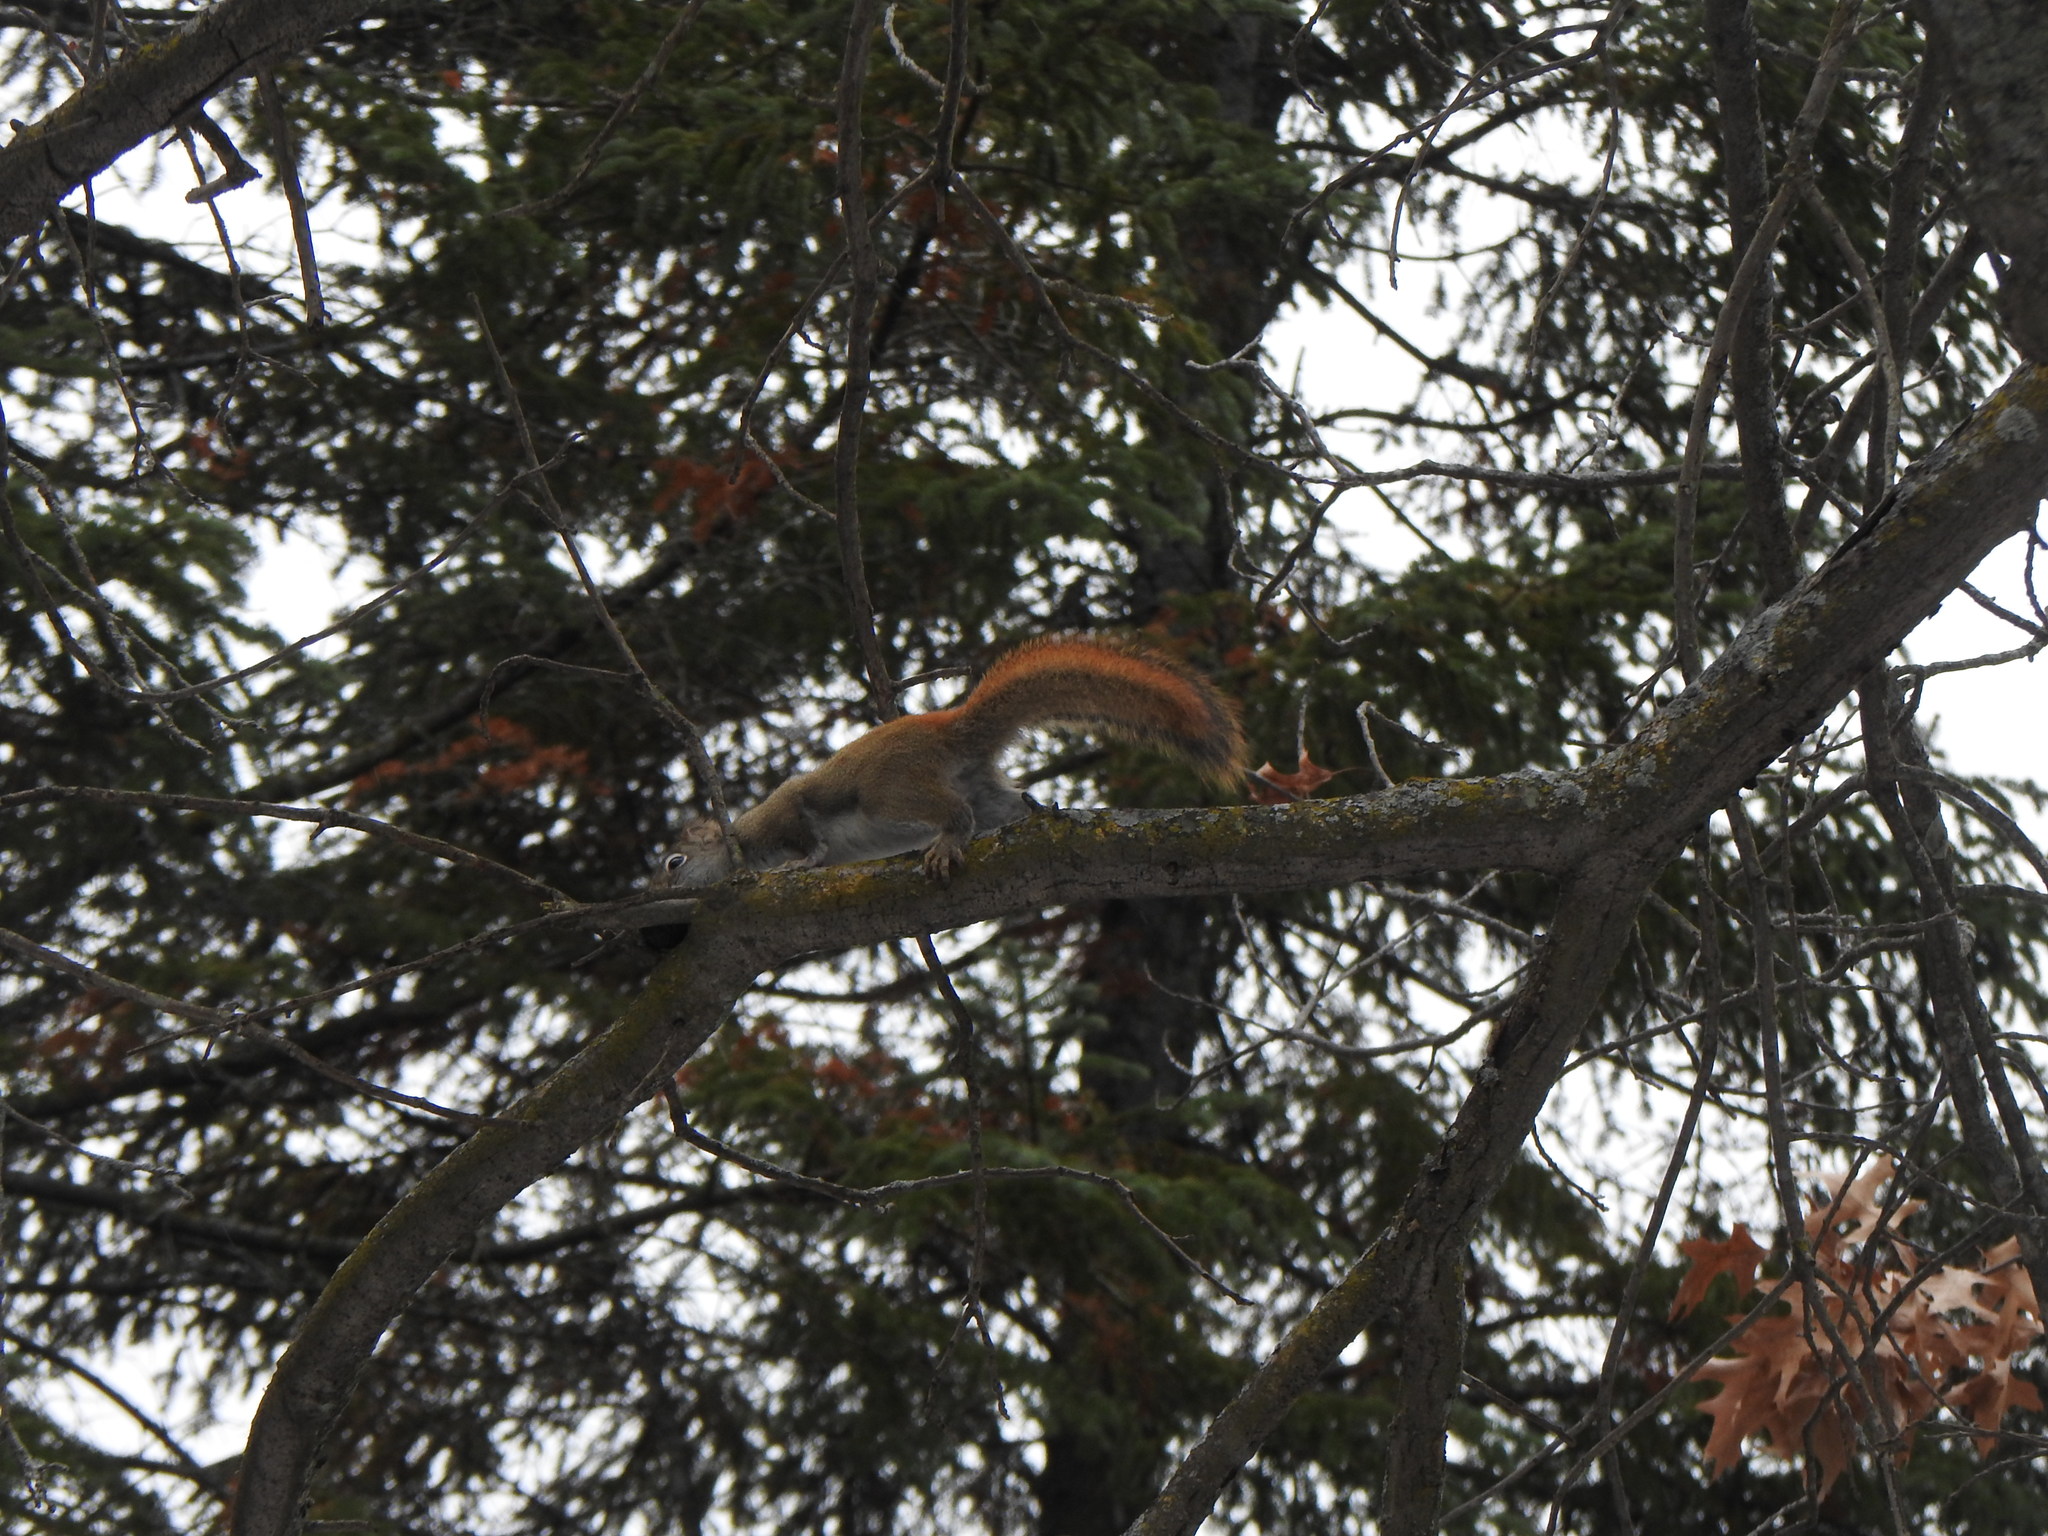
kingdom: Animalia
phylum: Chordata
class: Mammalia
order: Rodentia
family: Sciuridae
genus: Tamiasciurus
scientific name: Tamiasciurus hudsonicus
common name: Red squirrel
